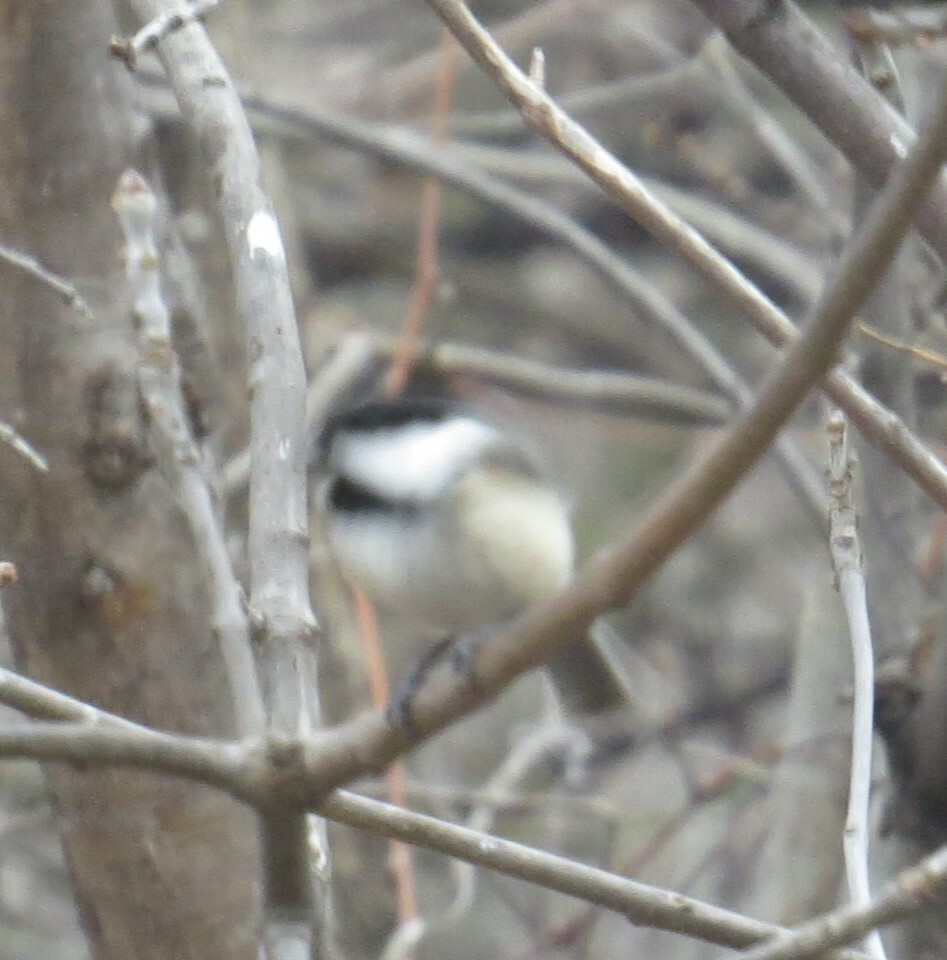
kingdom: Animalia
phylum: Chordata
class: Aves
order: Passeriformes
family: Paridae
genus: Poecile
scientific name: Poecile atricapillus
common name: Black-capped chickadee
